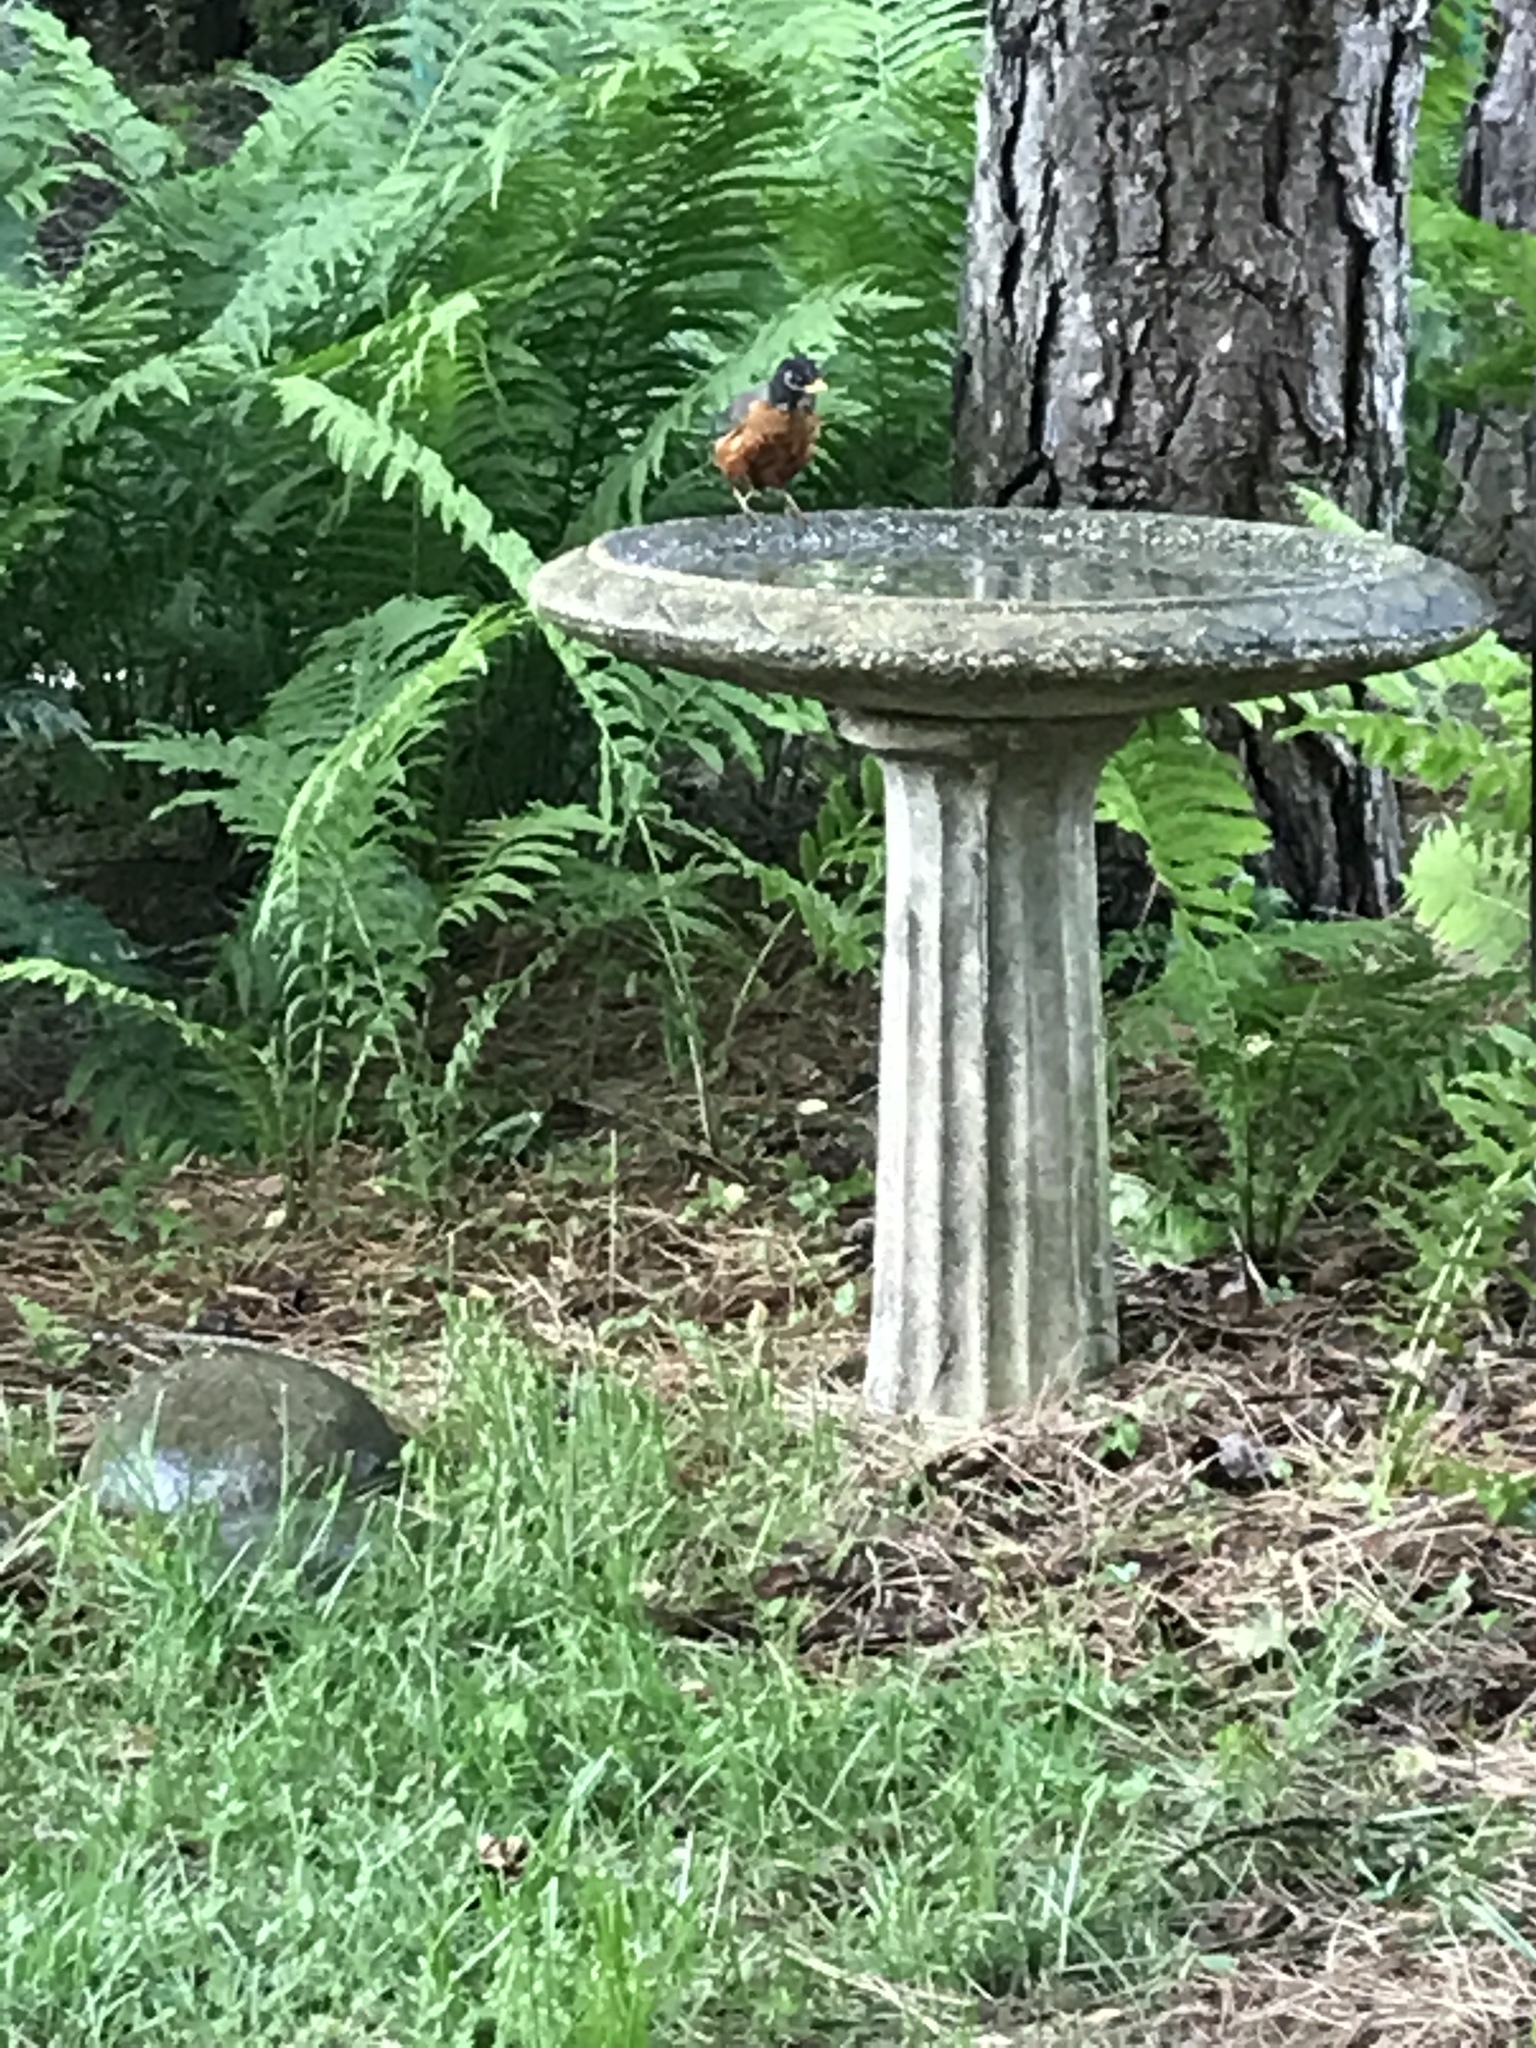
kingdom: Animalia
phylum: Chordata
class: Aves
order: Passeriformes
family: Turdidae
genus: Turdus
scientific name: Turdus migratorius
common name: American robin
